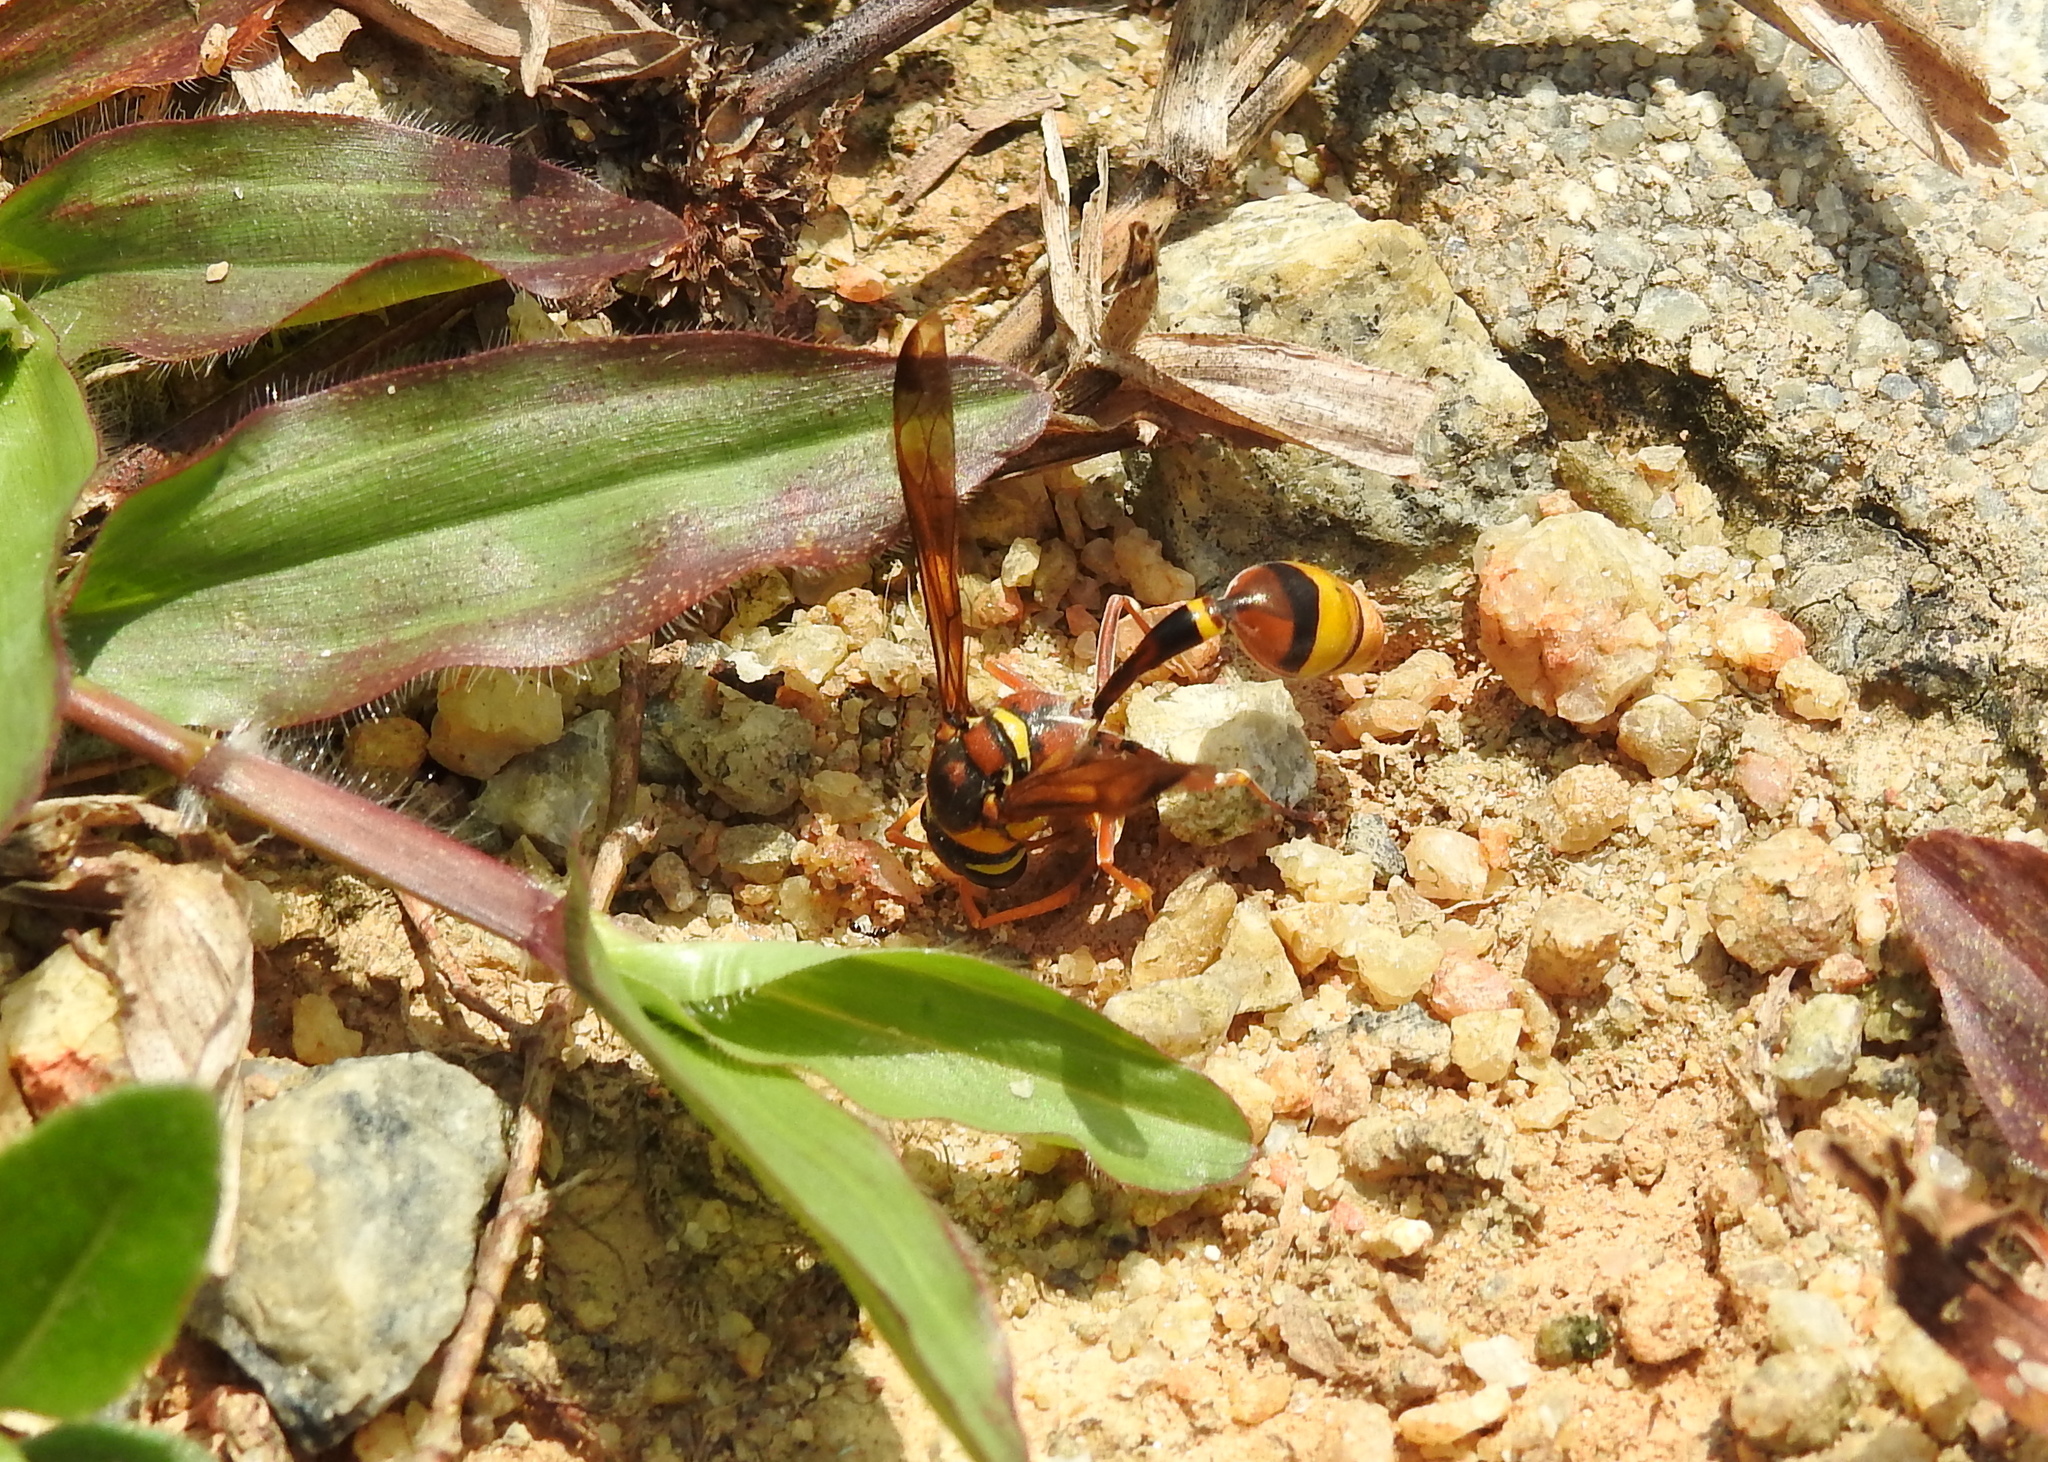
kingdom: Animalia
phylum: Arthropoda
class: Insecta
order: Hymenoptera
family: Eumenidae
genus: Delta
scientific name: Delta esuriens
